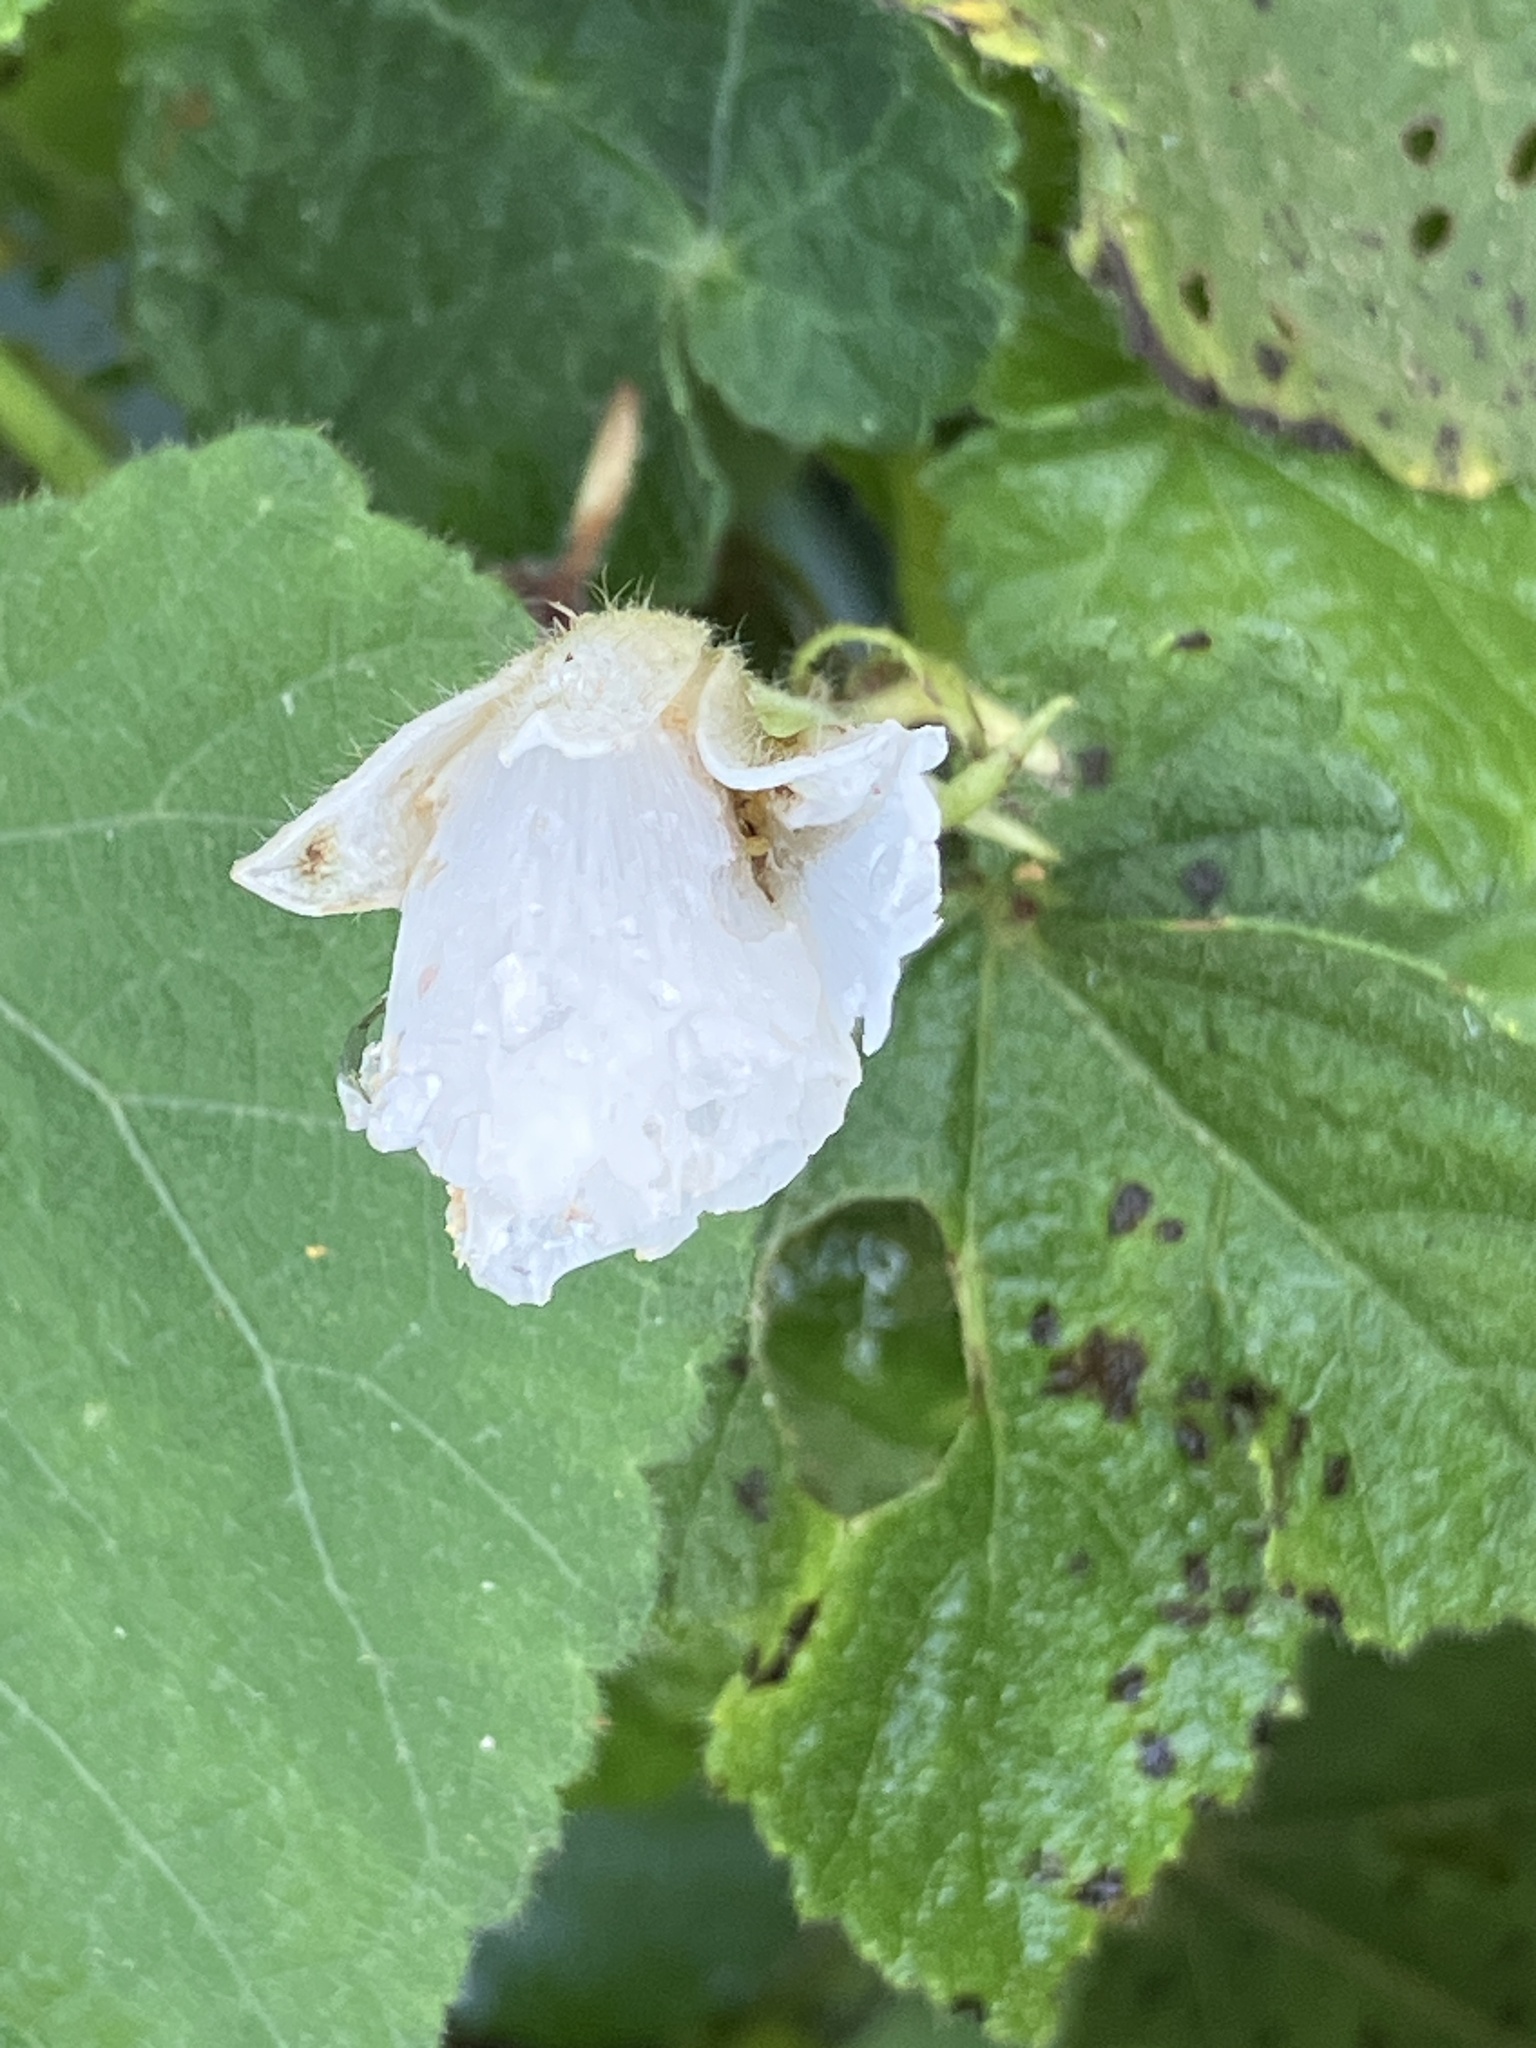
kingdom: Plantae
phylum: Tracheophyta
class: Magnoliopsida
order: Malvales
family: Malvaceae
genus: Sparrmannia
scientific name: Sparrmannia africana
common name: African-hemp
